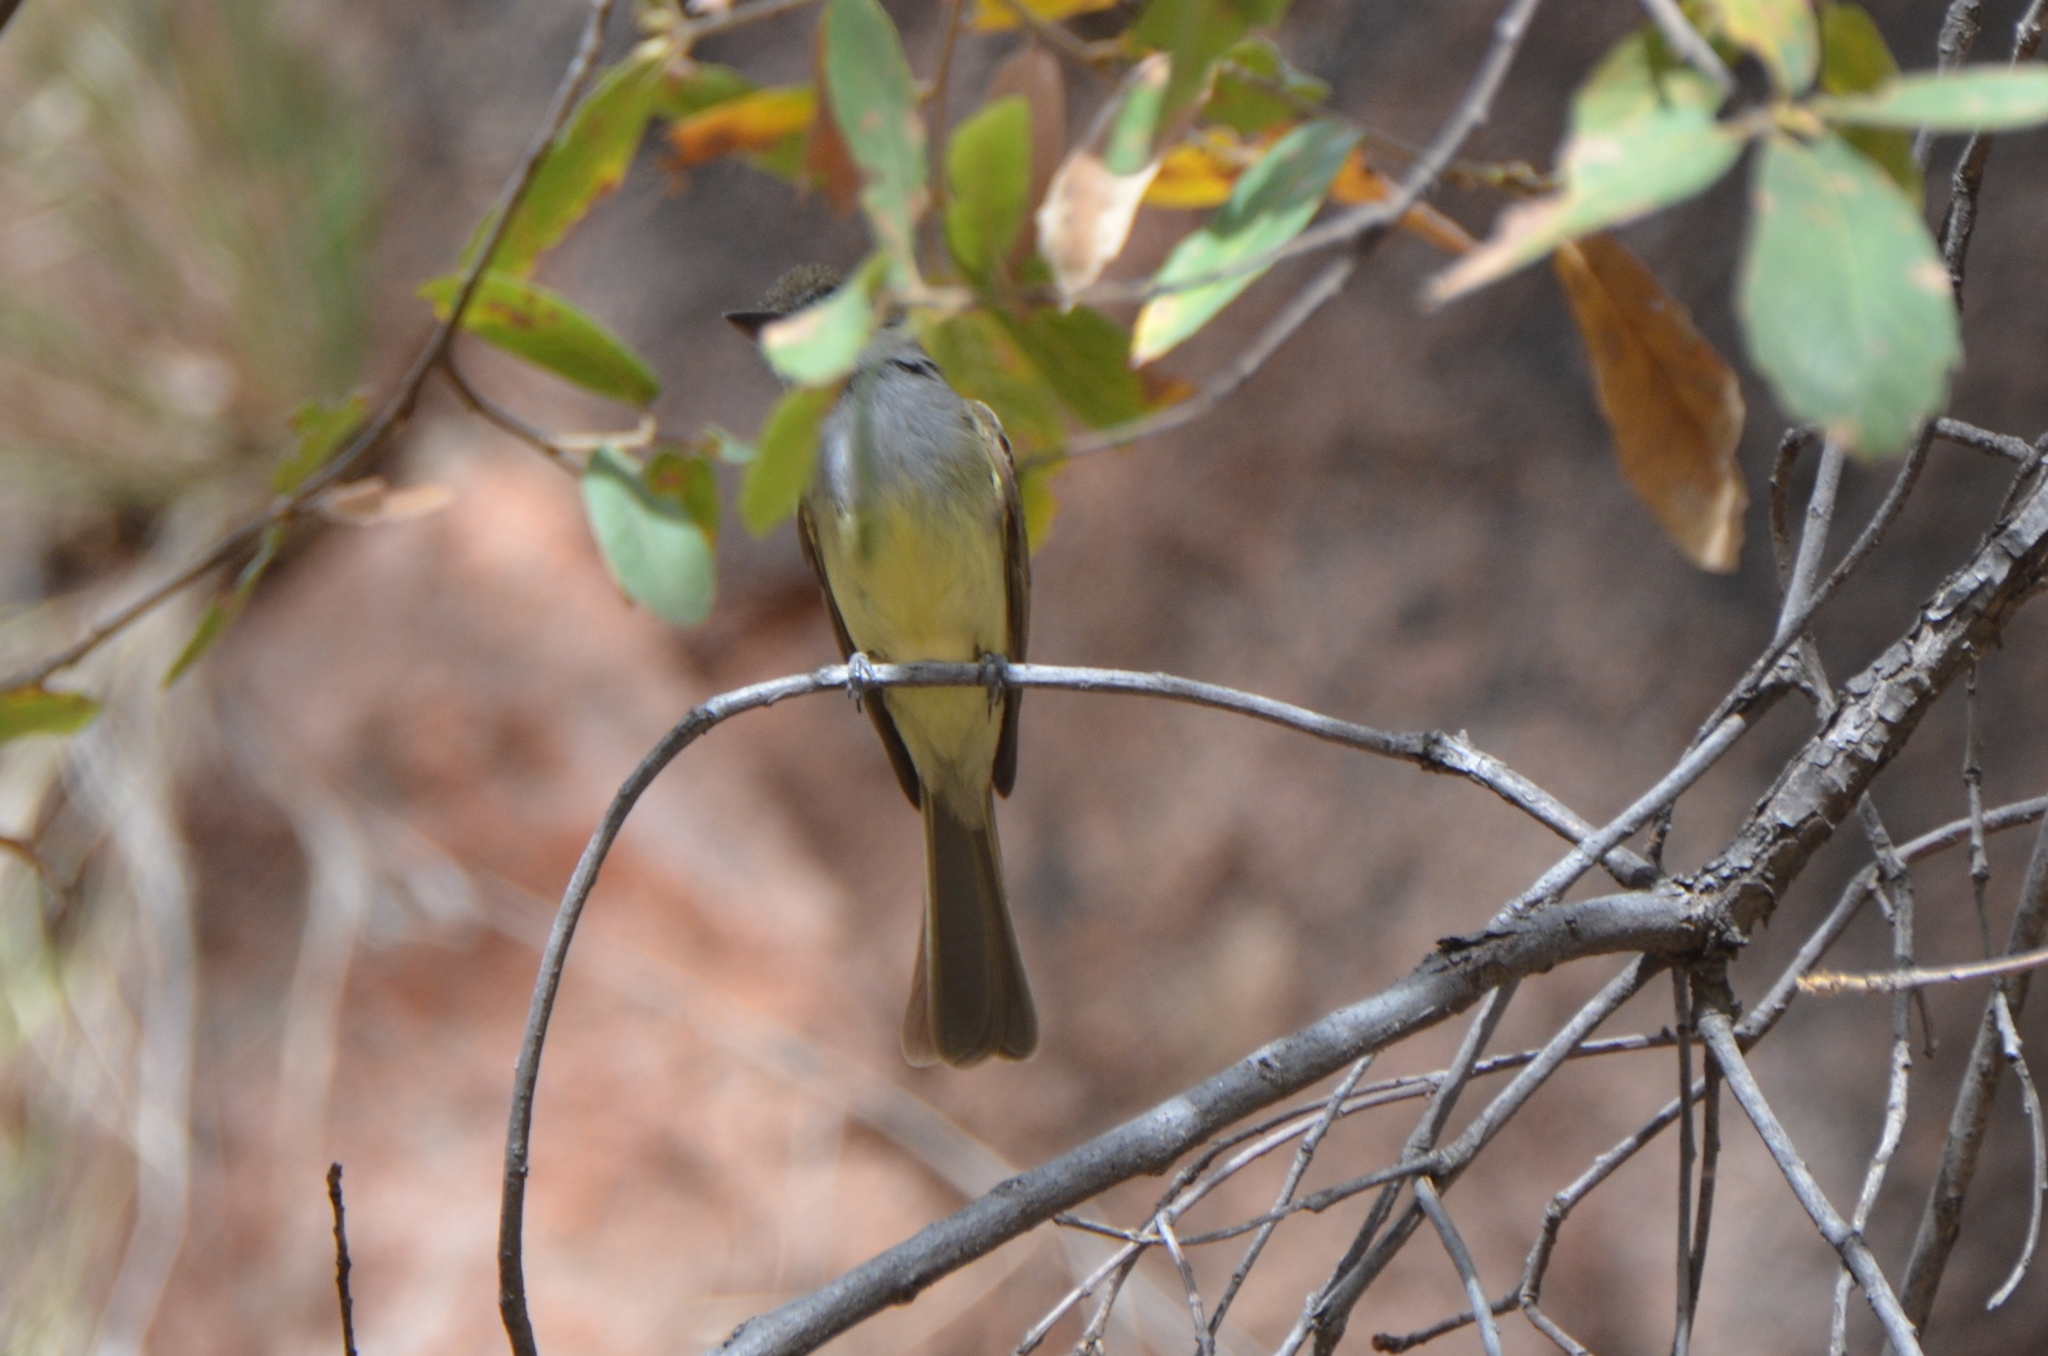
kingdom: Animalia
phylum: Chordata
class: Aves
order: Passeriformes
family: Tyrannidae
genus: Myiarchus
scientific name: Myiarchus tuberculifer
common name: Dusky-capped flycatcher
